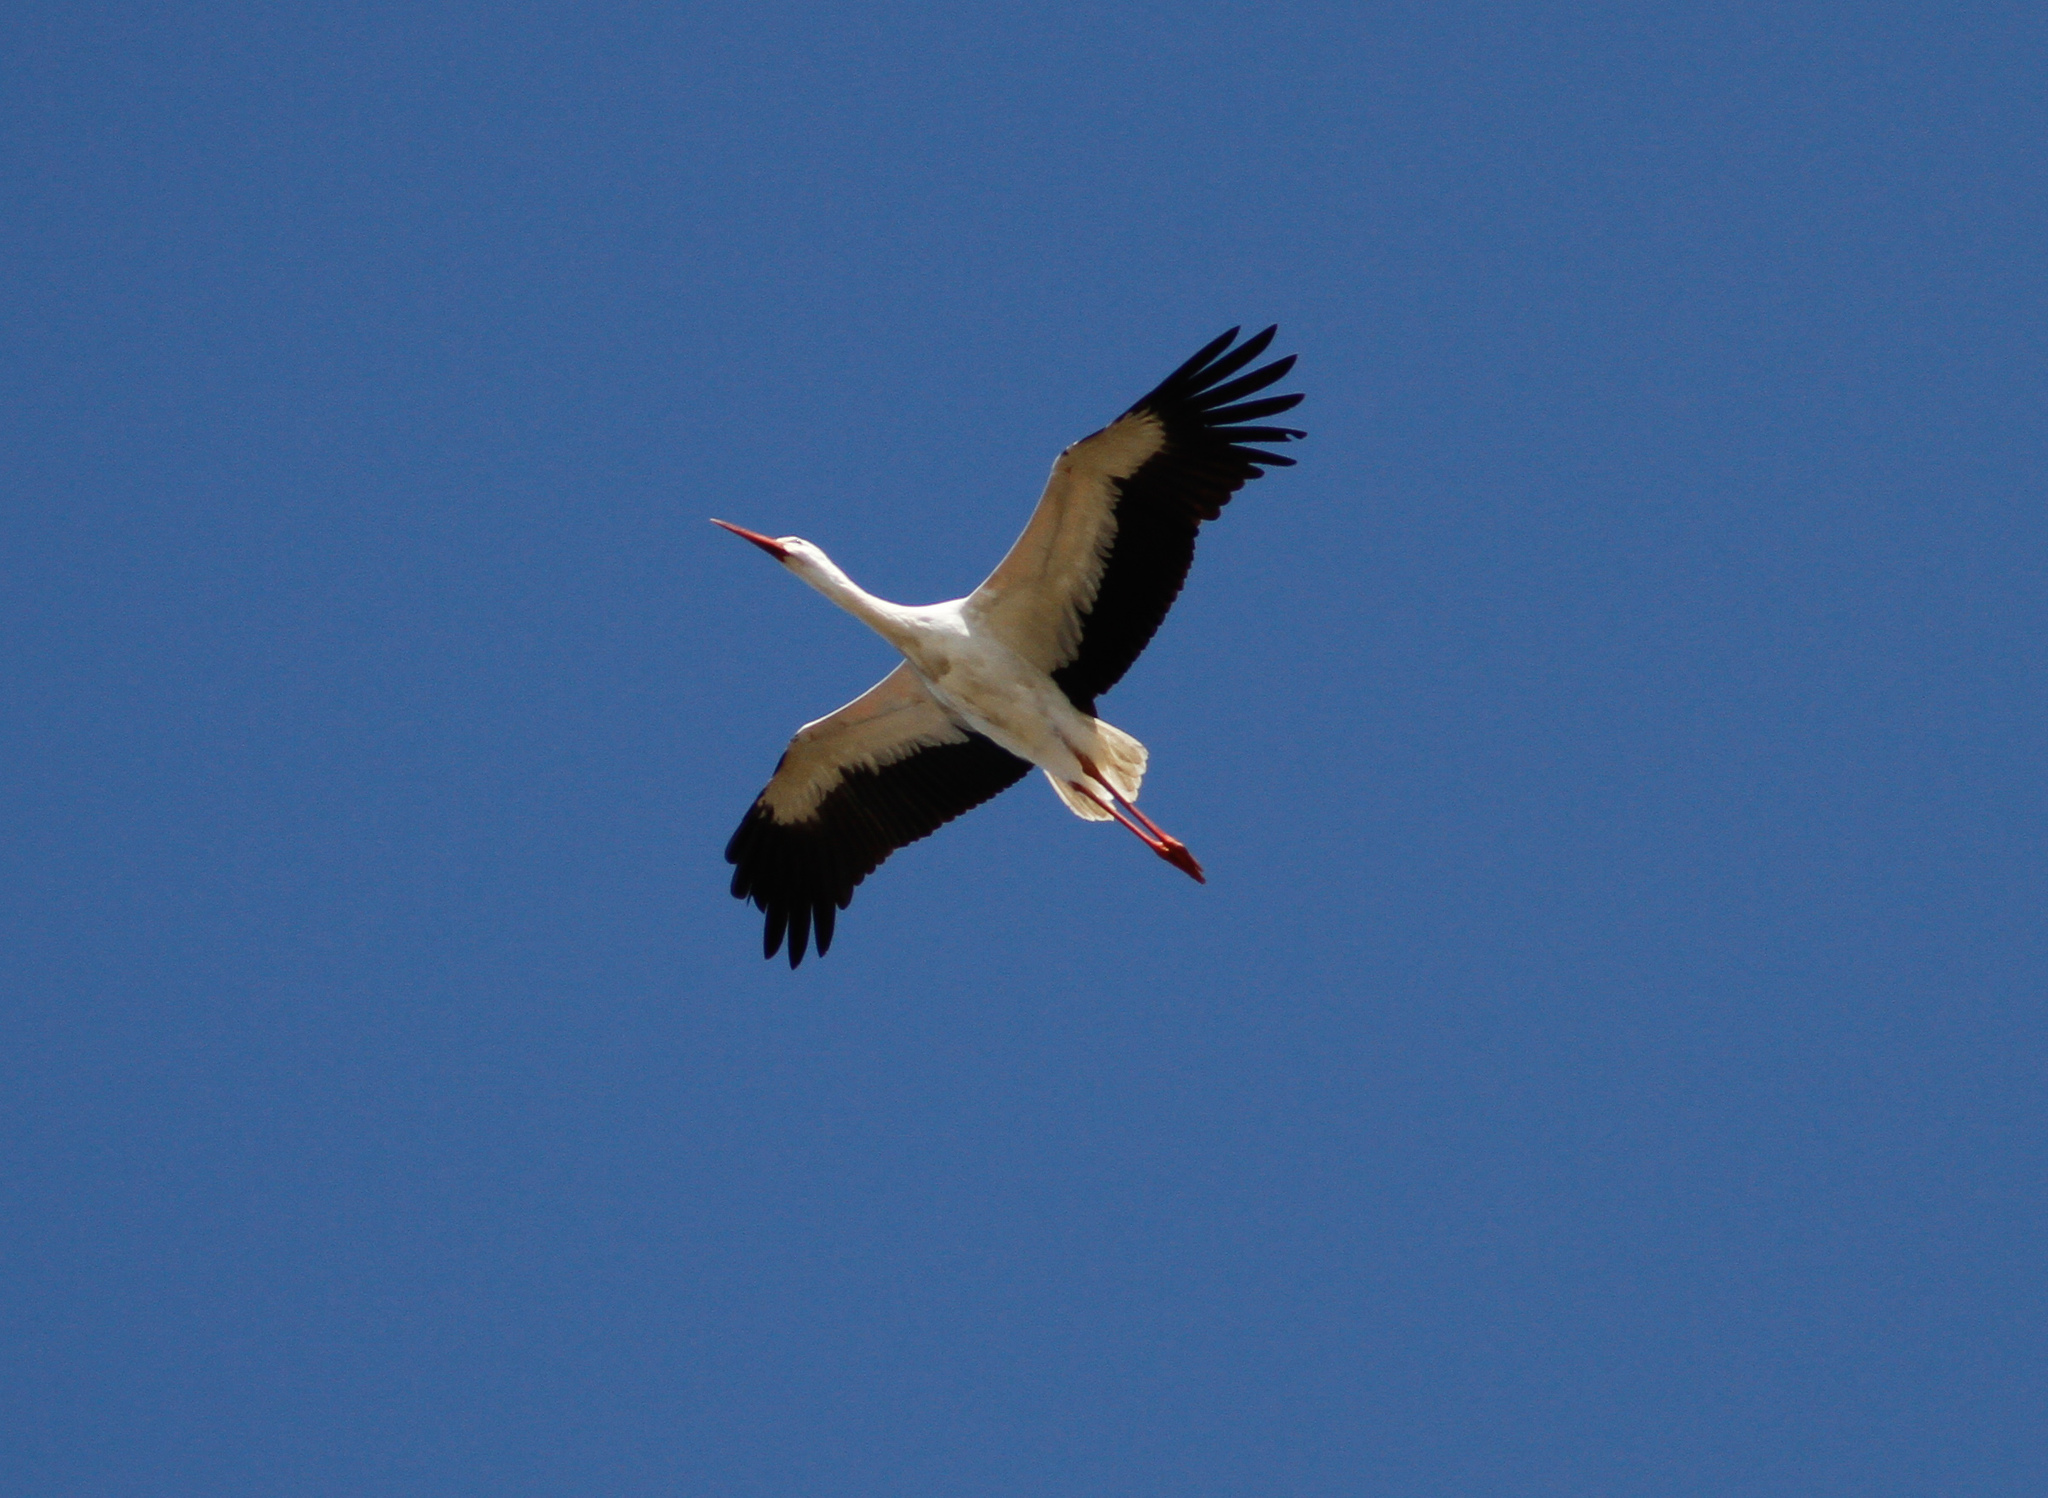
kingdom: Animalia
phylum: Chordata
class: Aves
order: Ciconiiformes
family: Ciconiidae
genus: Ciconia
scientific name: Ciconia ciconia
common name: White stork
